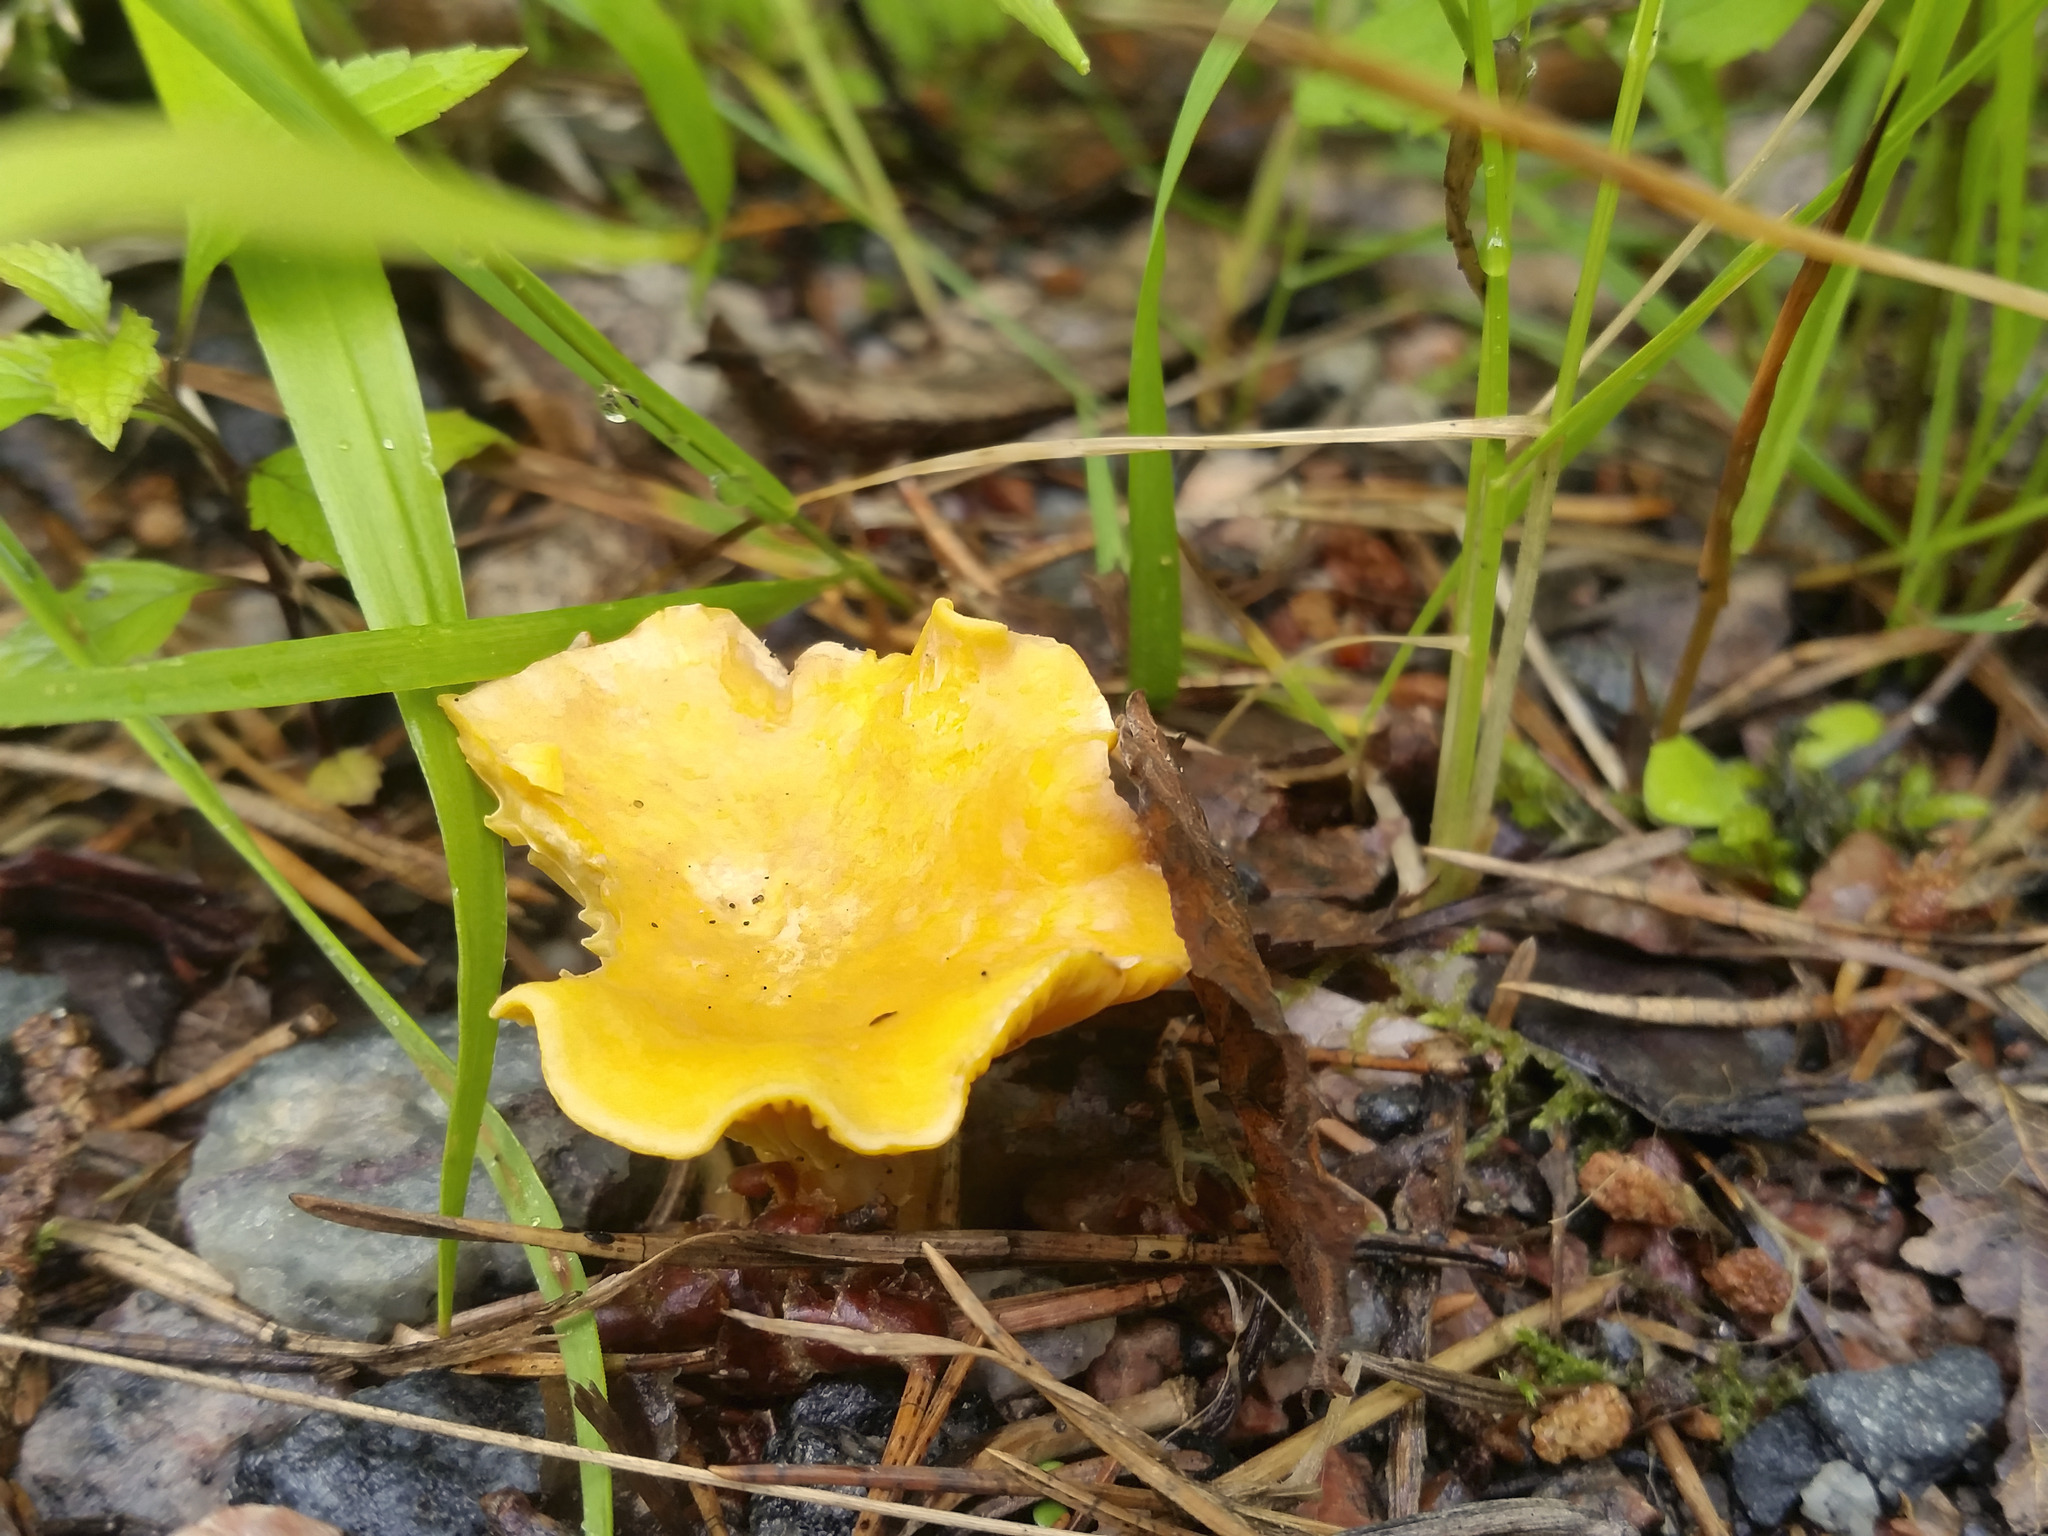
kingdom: Fungi
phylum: Basidiomycota
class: Agaricomycetes
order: Cantharellales
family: Hydnaceae
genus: Cantharellus
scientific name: Cantharellus cibarius
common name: Chanterelle
